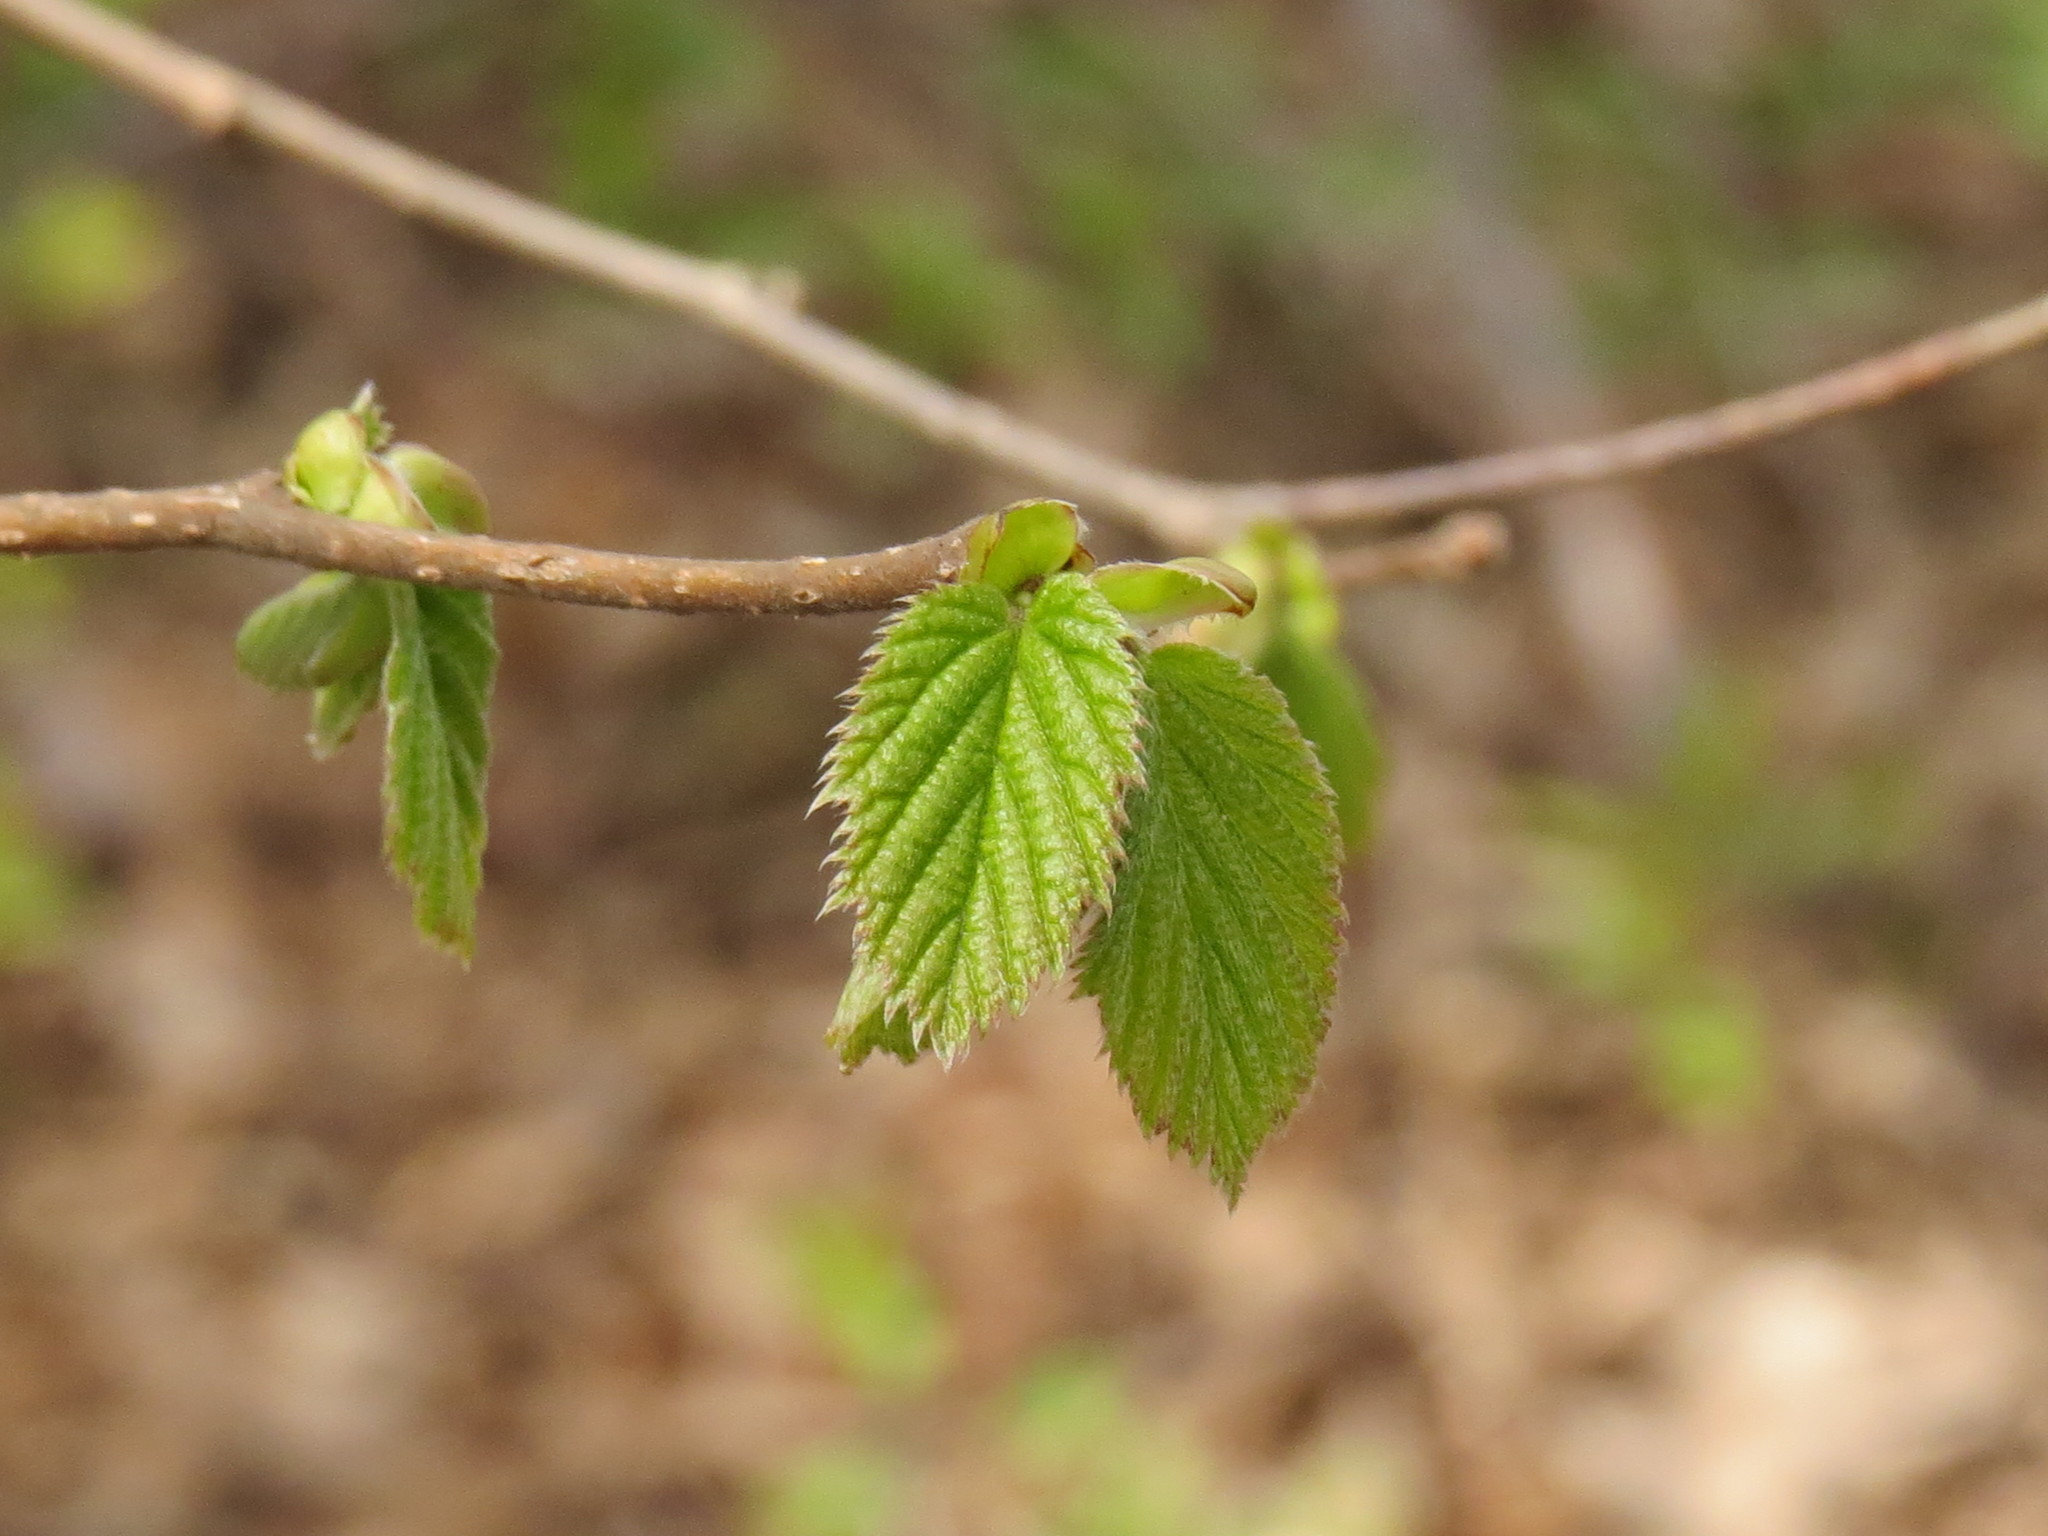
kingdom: Plantae
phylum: Tracheophyta
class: Magnoliopsida
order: Fagales
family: Betulaceae
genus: Corylus
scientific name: Corylus avellana
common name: European hazel
